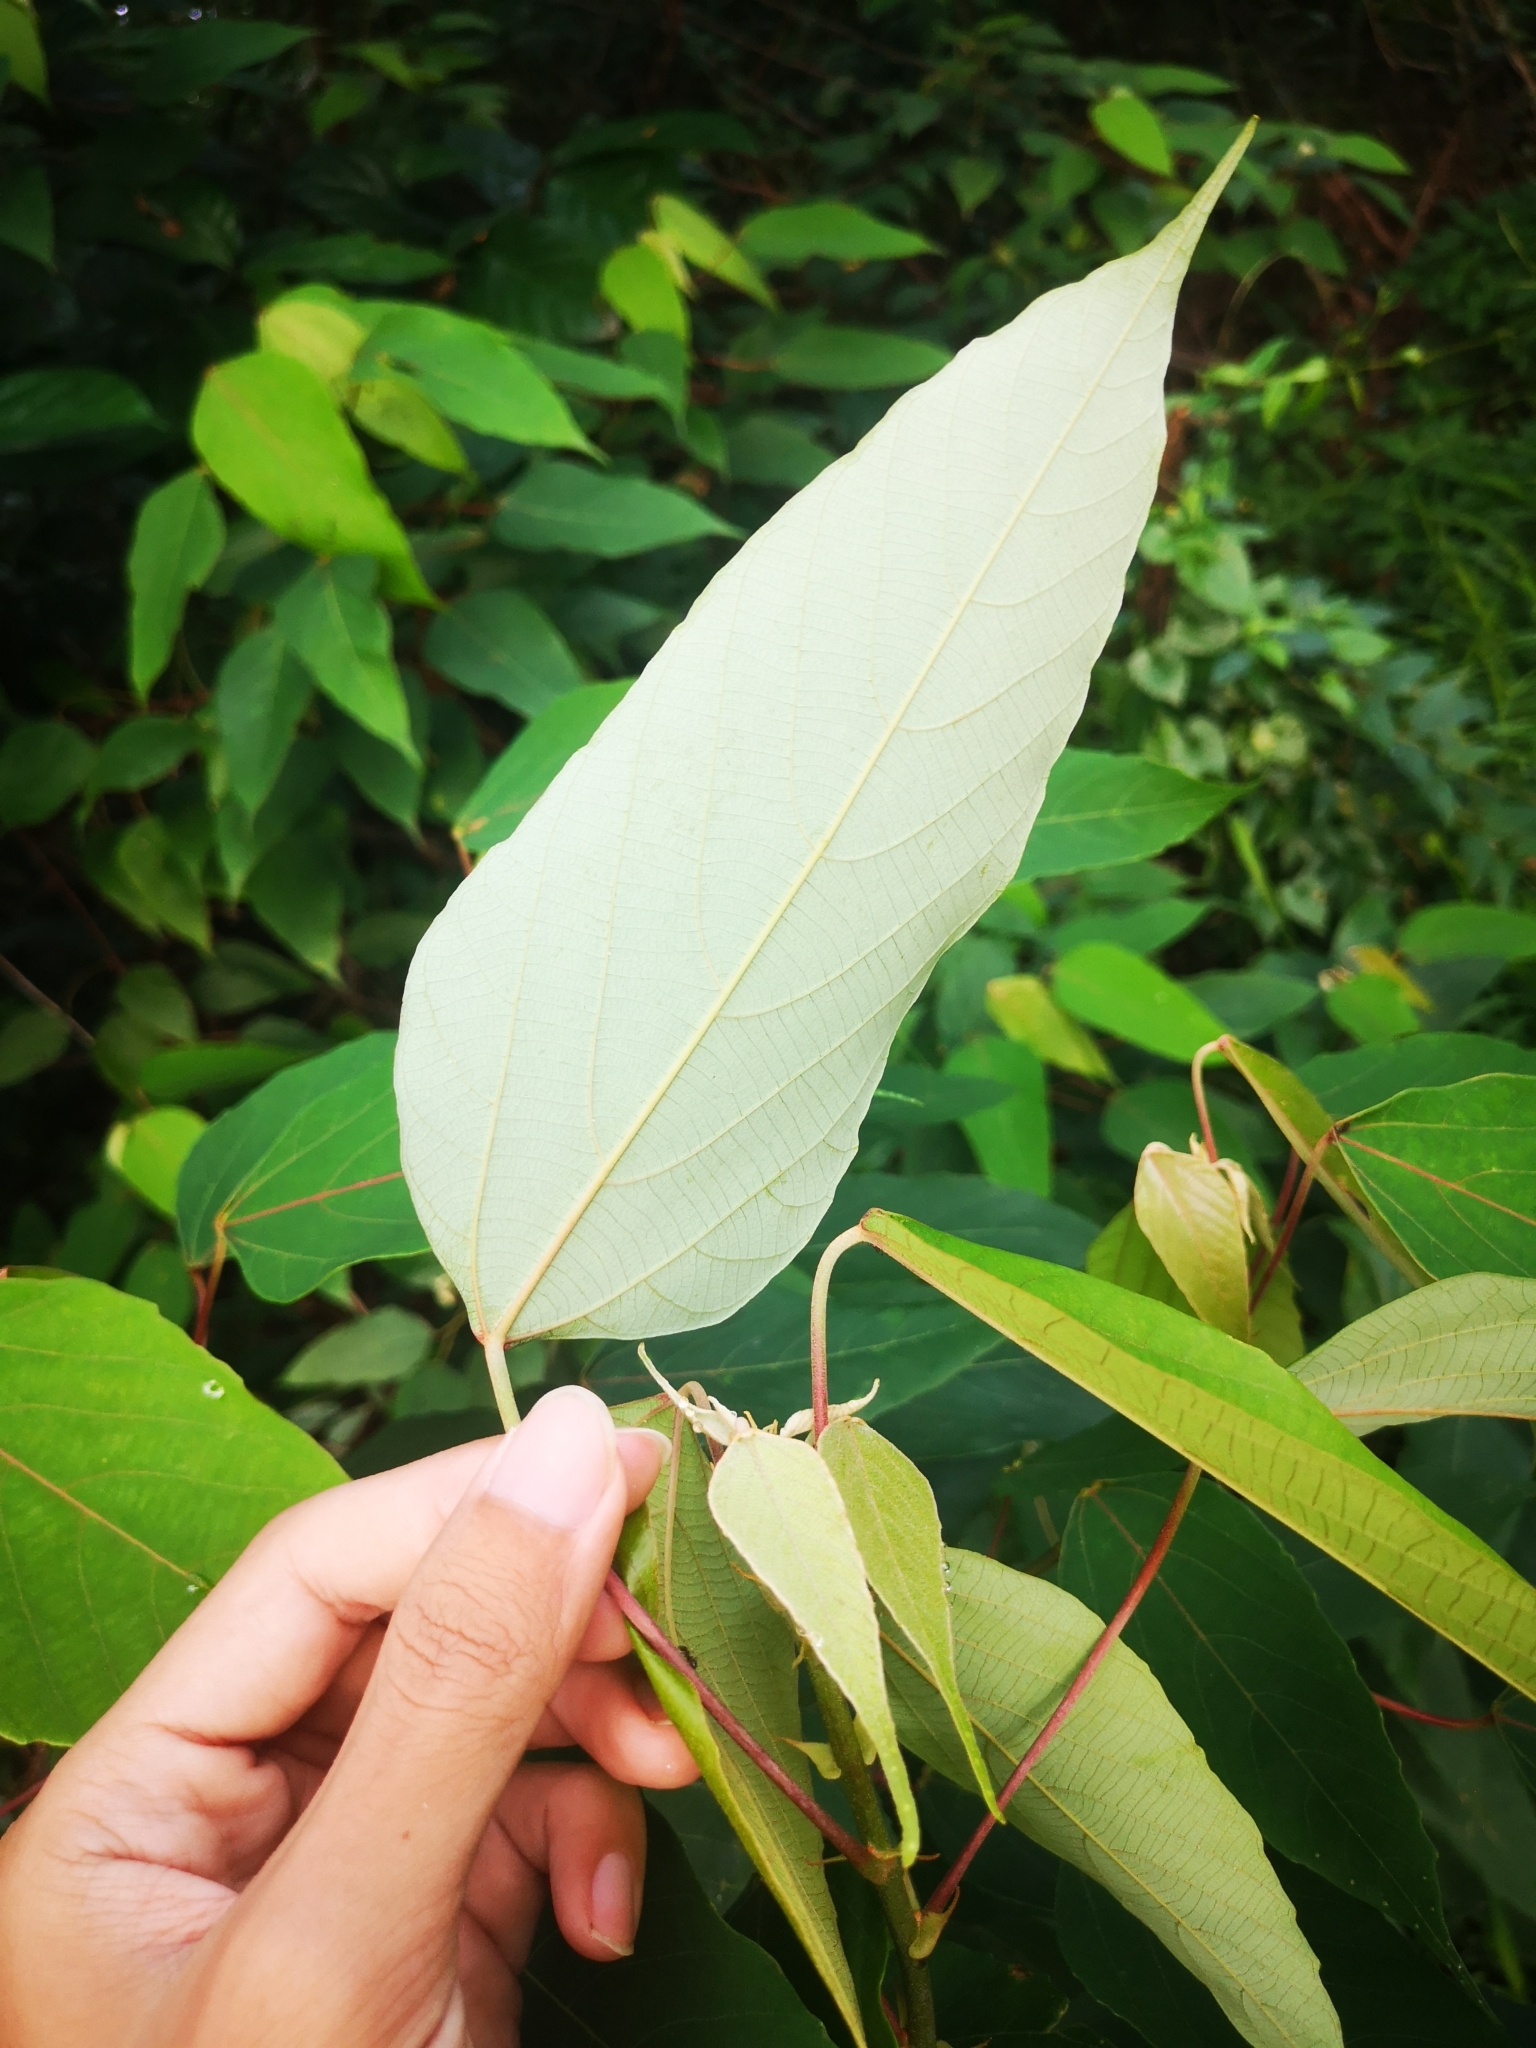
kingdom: Plantae
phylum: Tracheophyta
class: Magnoliopsida
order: Malpighiales
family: Euphorbiaceae
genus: Macaranga
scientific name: Macaranga heynei
